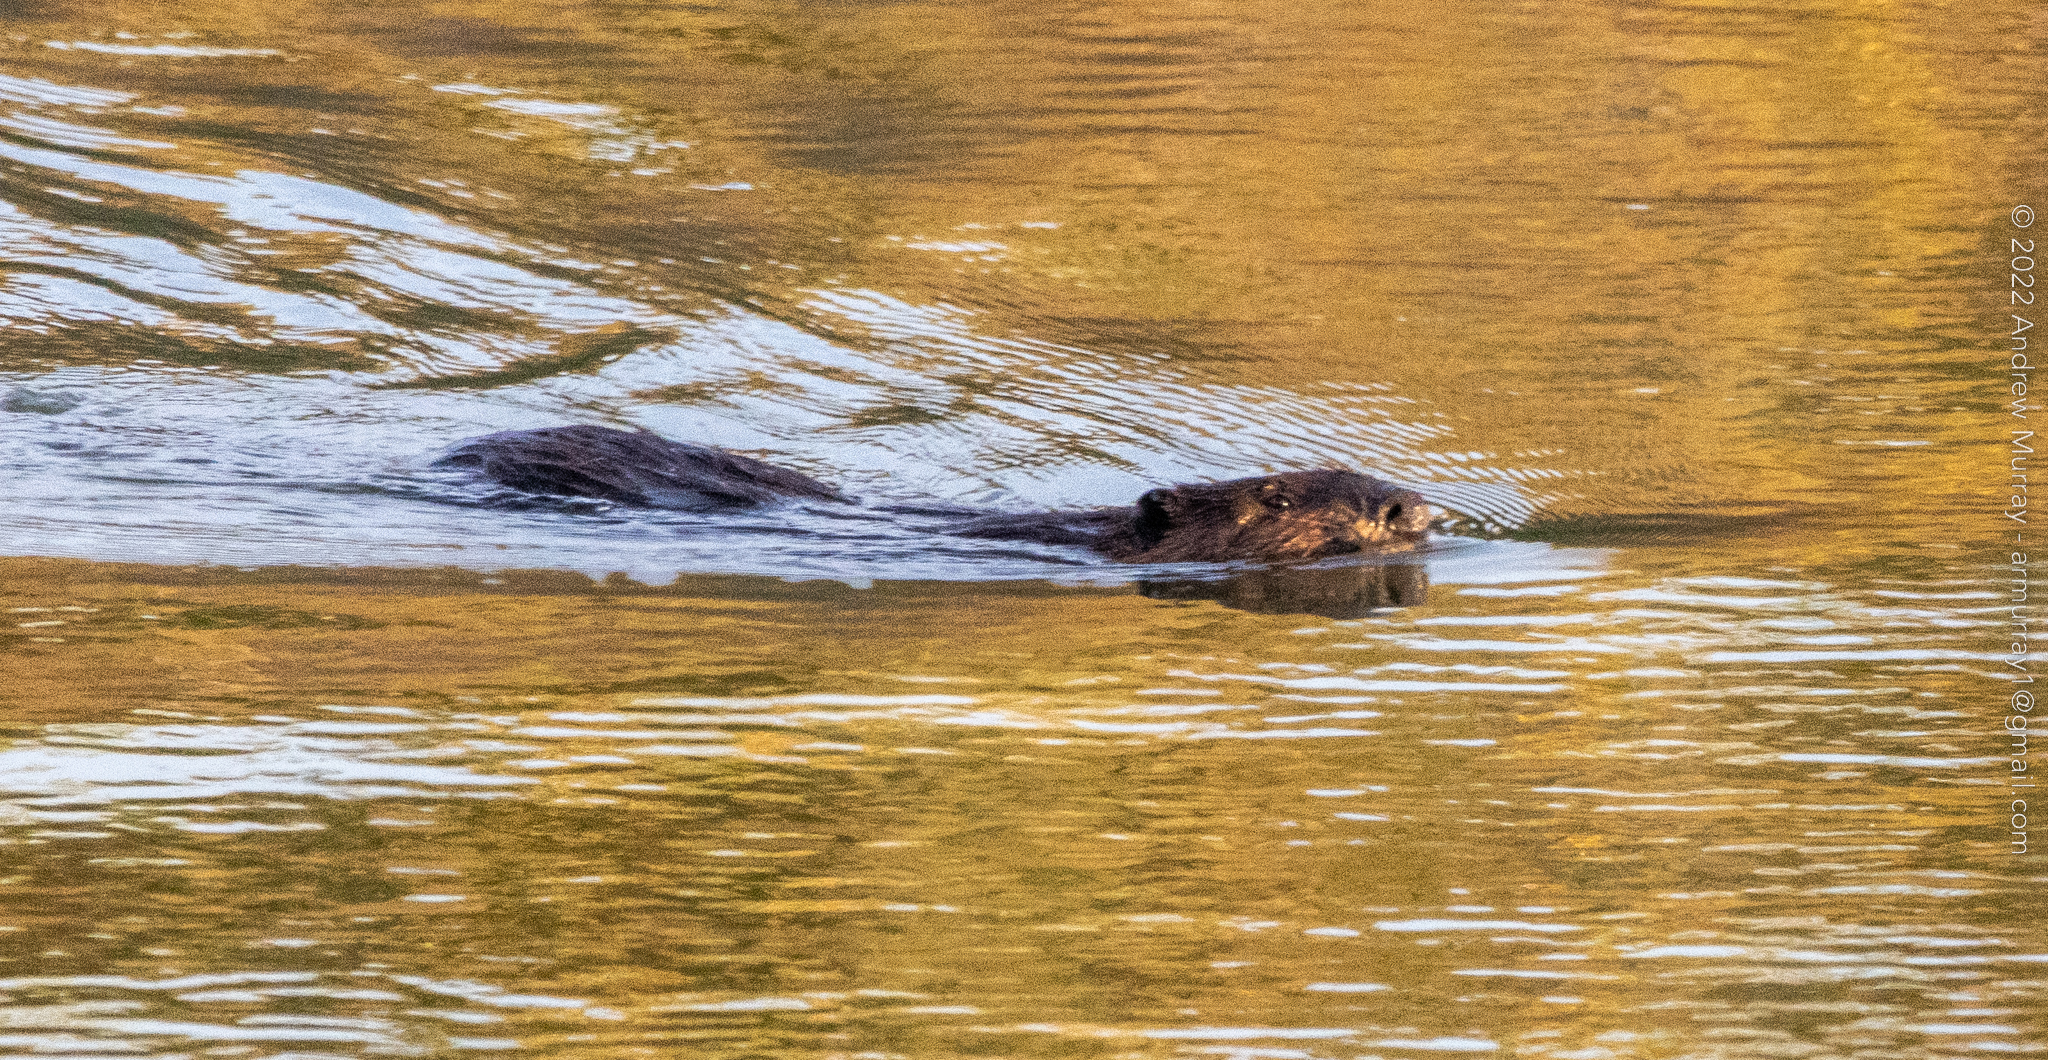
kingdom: Animalia
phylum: Chordata
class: Mammalia
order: Rodentia
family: Castoridae
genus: Castor
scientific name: Castor canadensis
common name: American beaver
